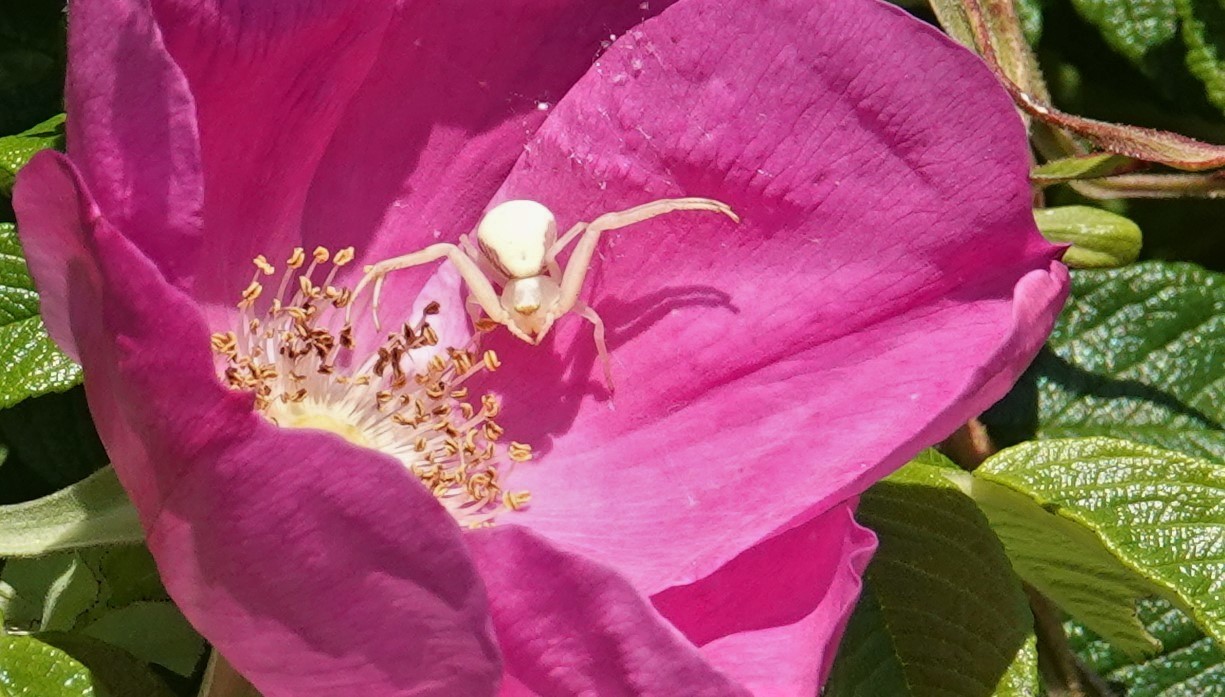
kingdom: Animalia
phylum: Arthropoda
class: Arachnida
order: Araneae
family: Thomisidae
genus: Misumena
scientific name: Misumena vatia
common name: Goldenrod crab spider
